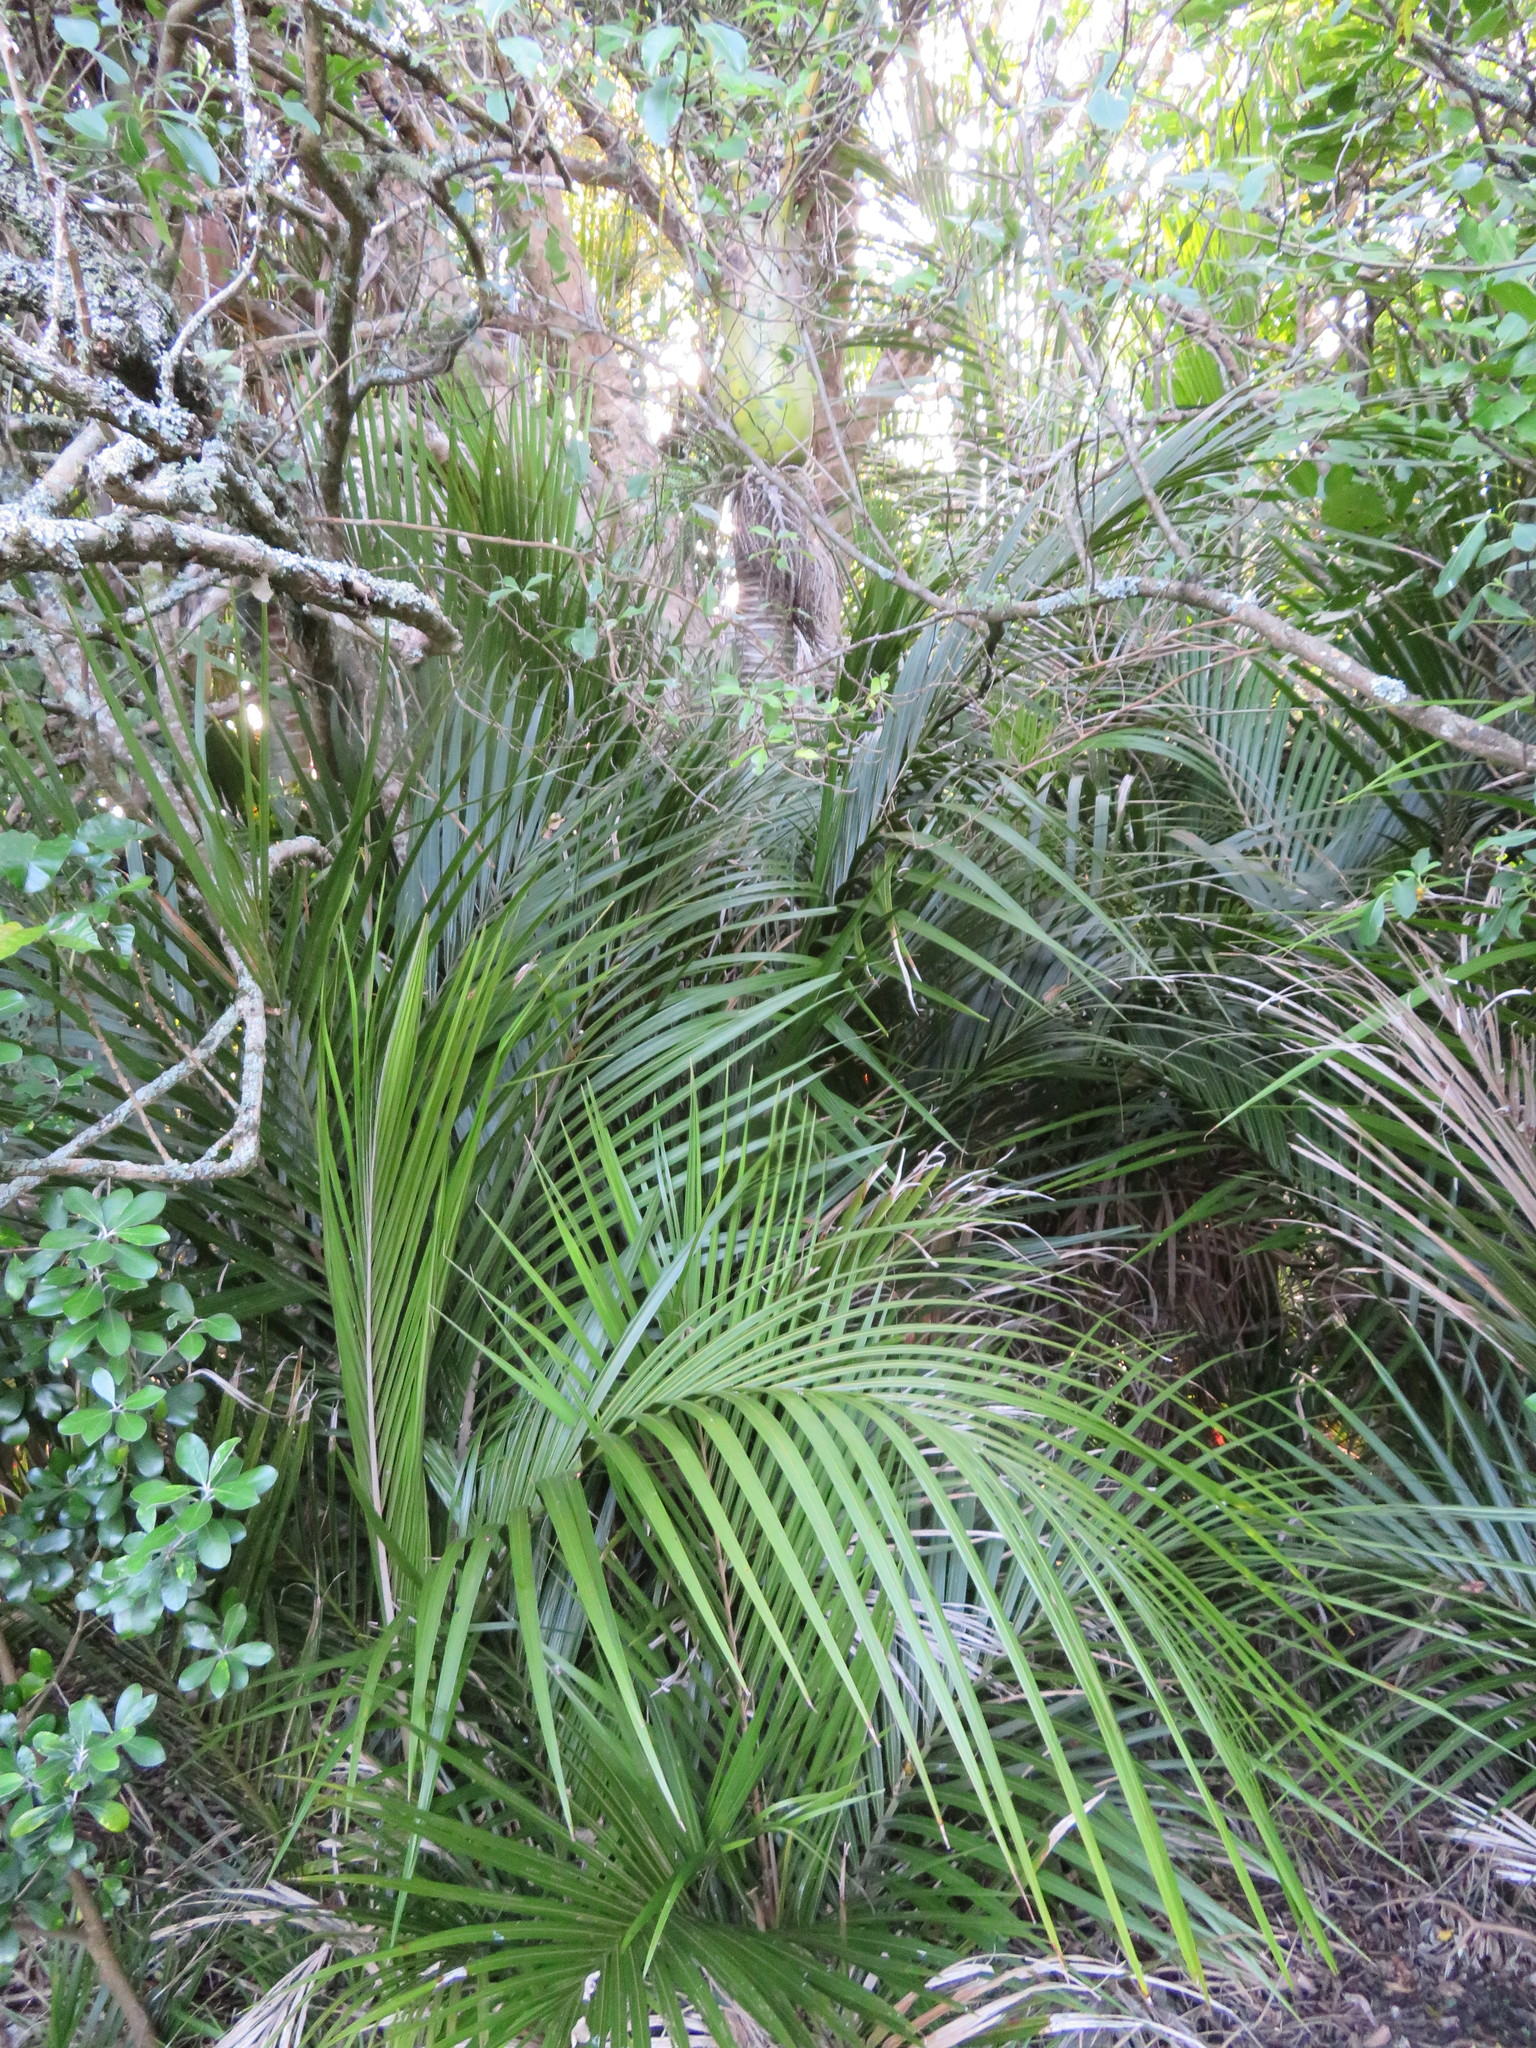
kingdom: Plantae
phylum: Tracheophyta
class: Liliopsida
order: Arecales
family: Arecaceae
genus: Rhopalostylis
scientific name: Rhopalostylis sapida
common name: Feather-duster palm
